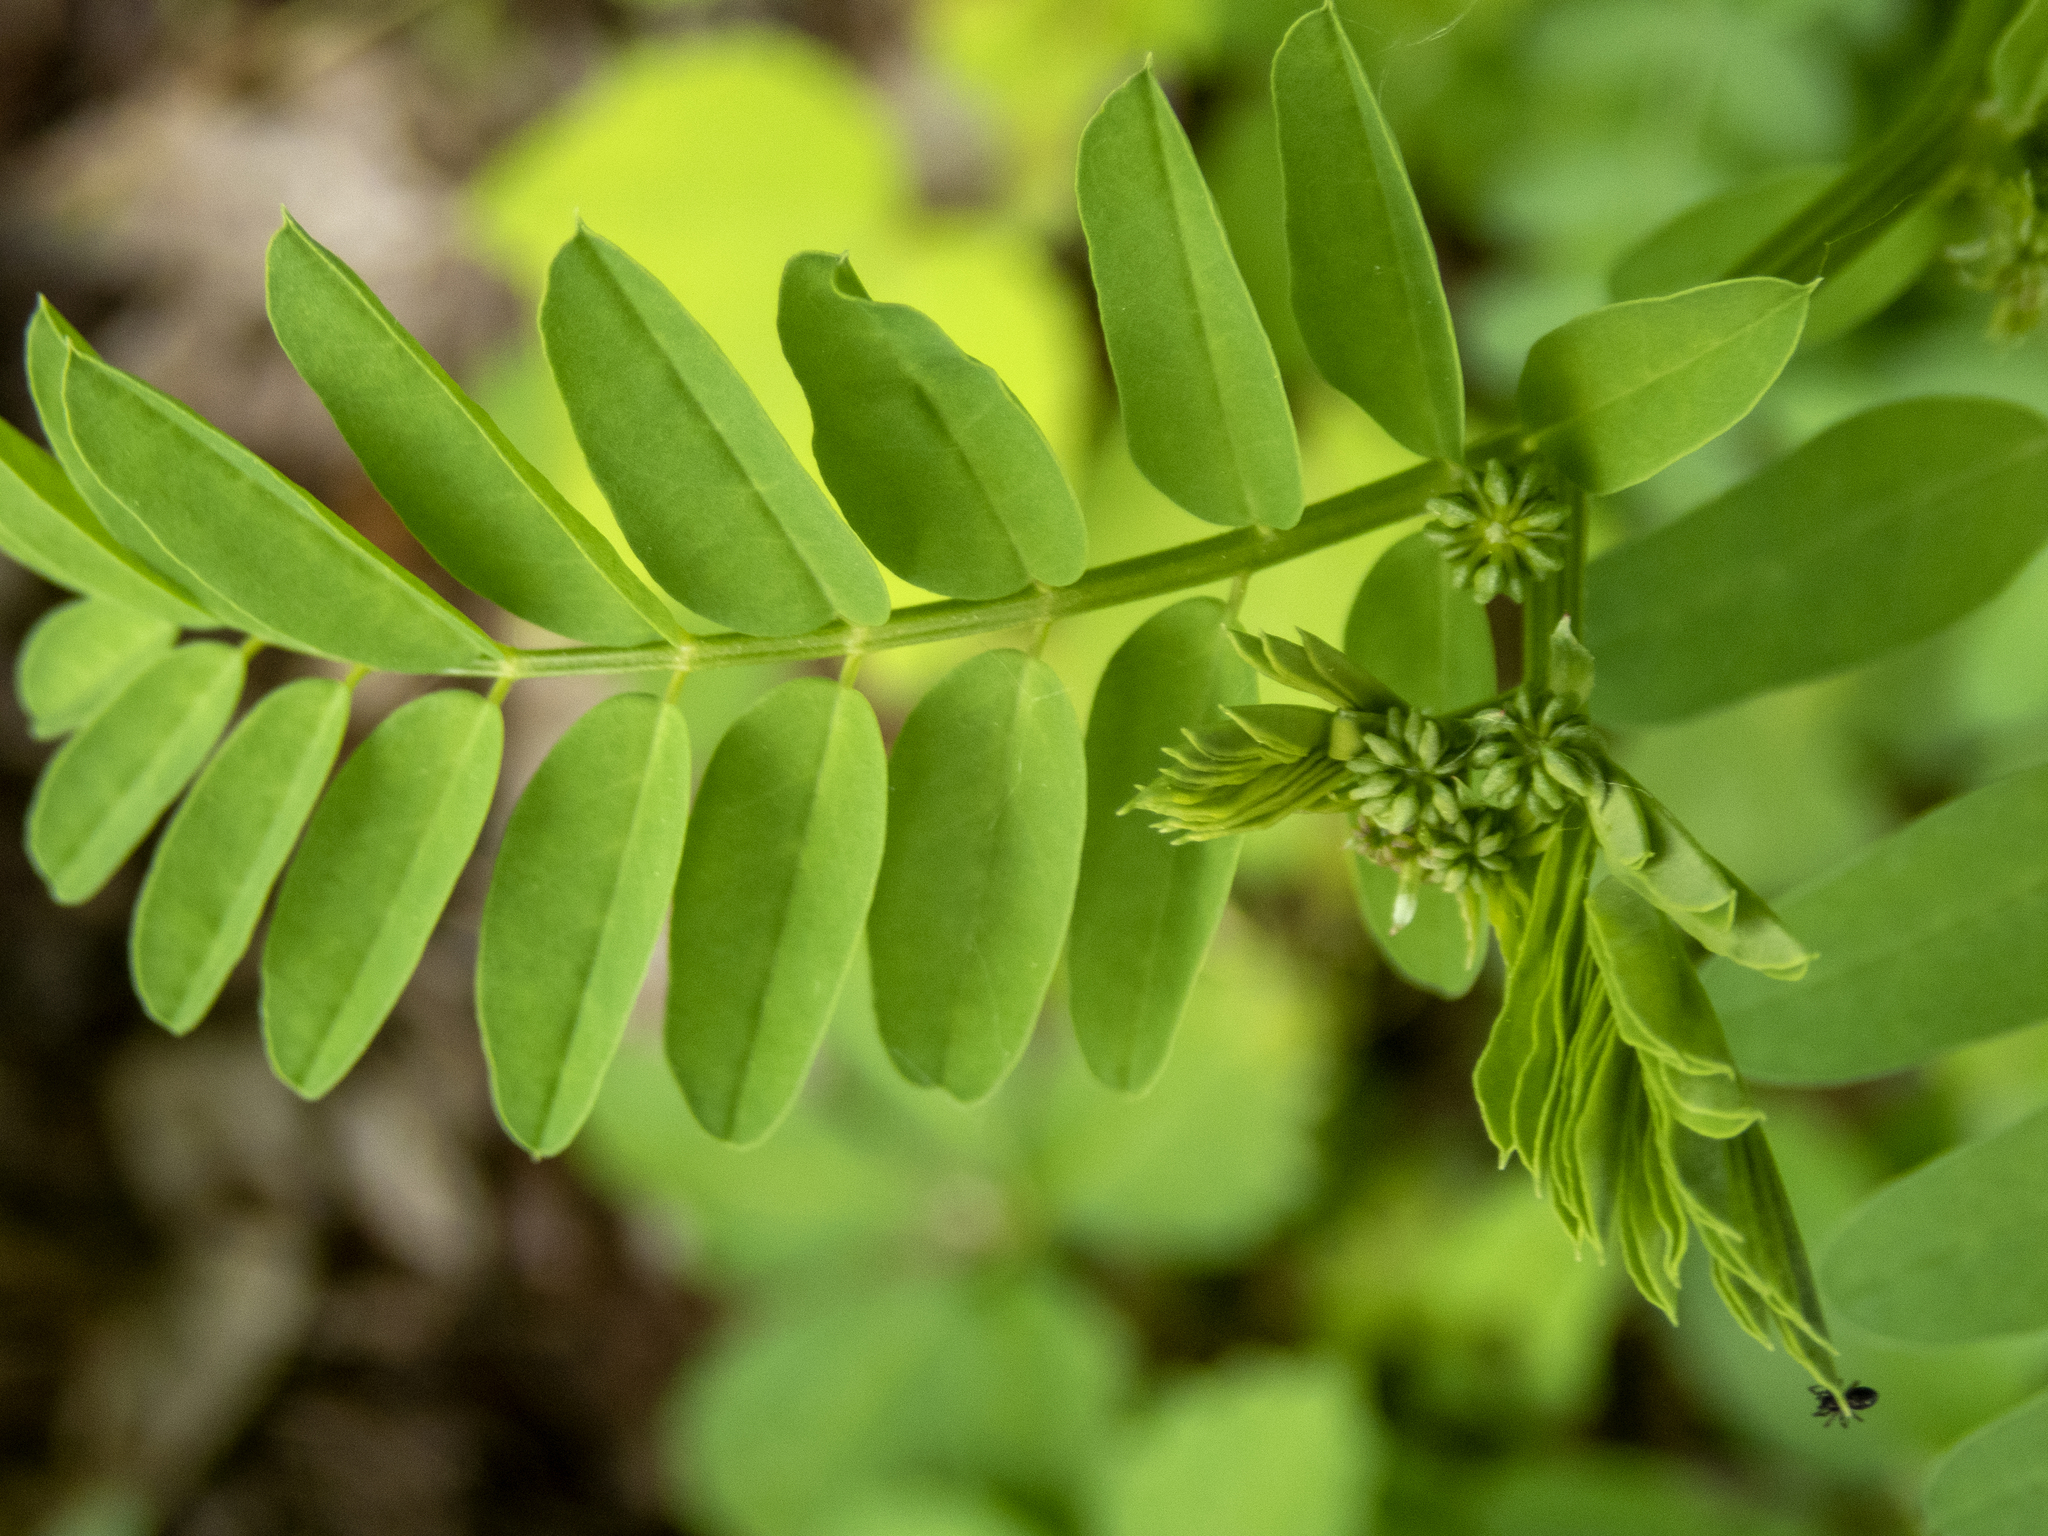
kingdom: Plantae
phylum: Tracheophyta
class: Magnoliopsida
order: Fabales
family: Fabaceae
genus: Coronilla
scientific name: Coronilla varia
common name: Crownvetch
